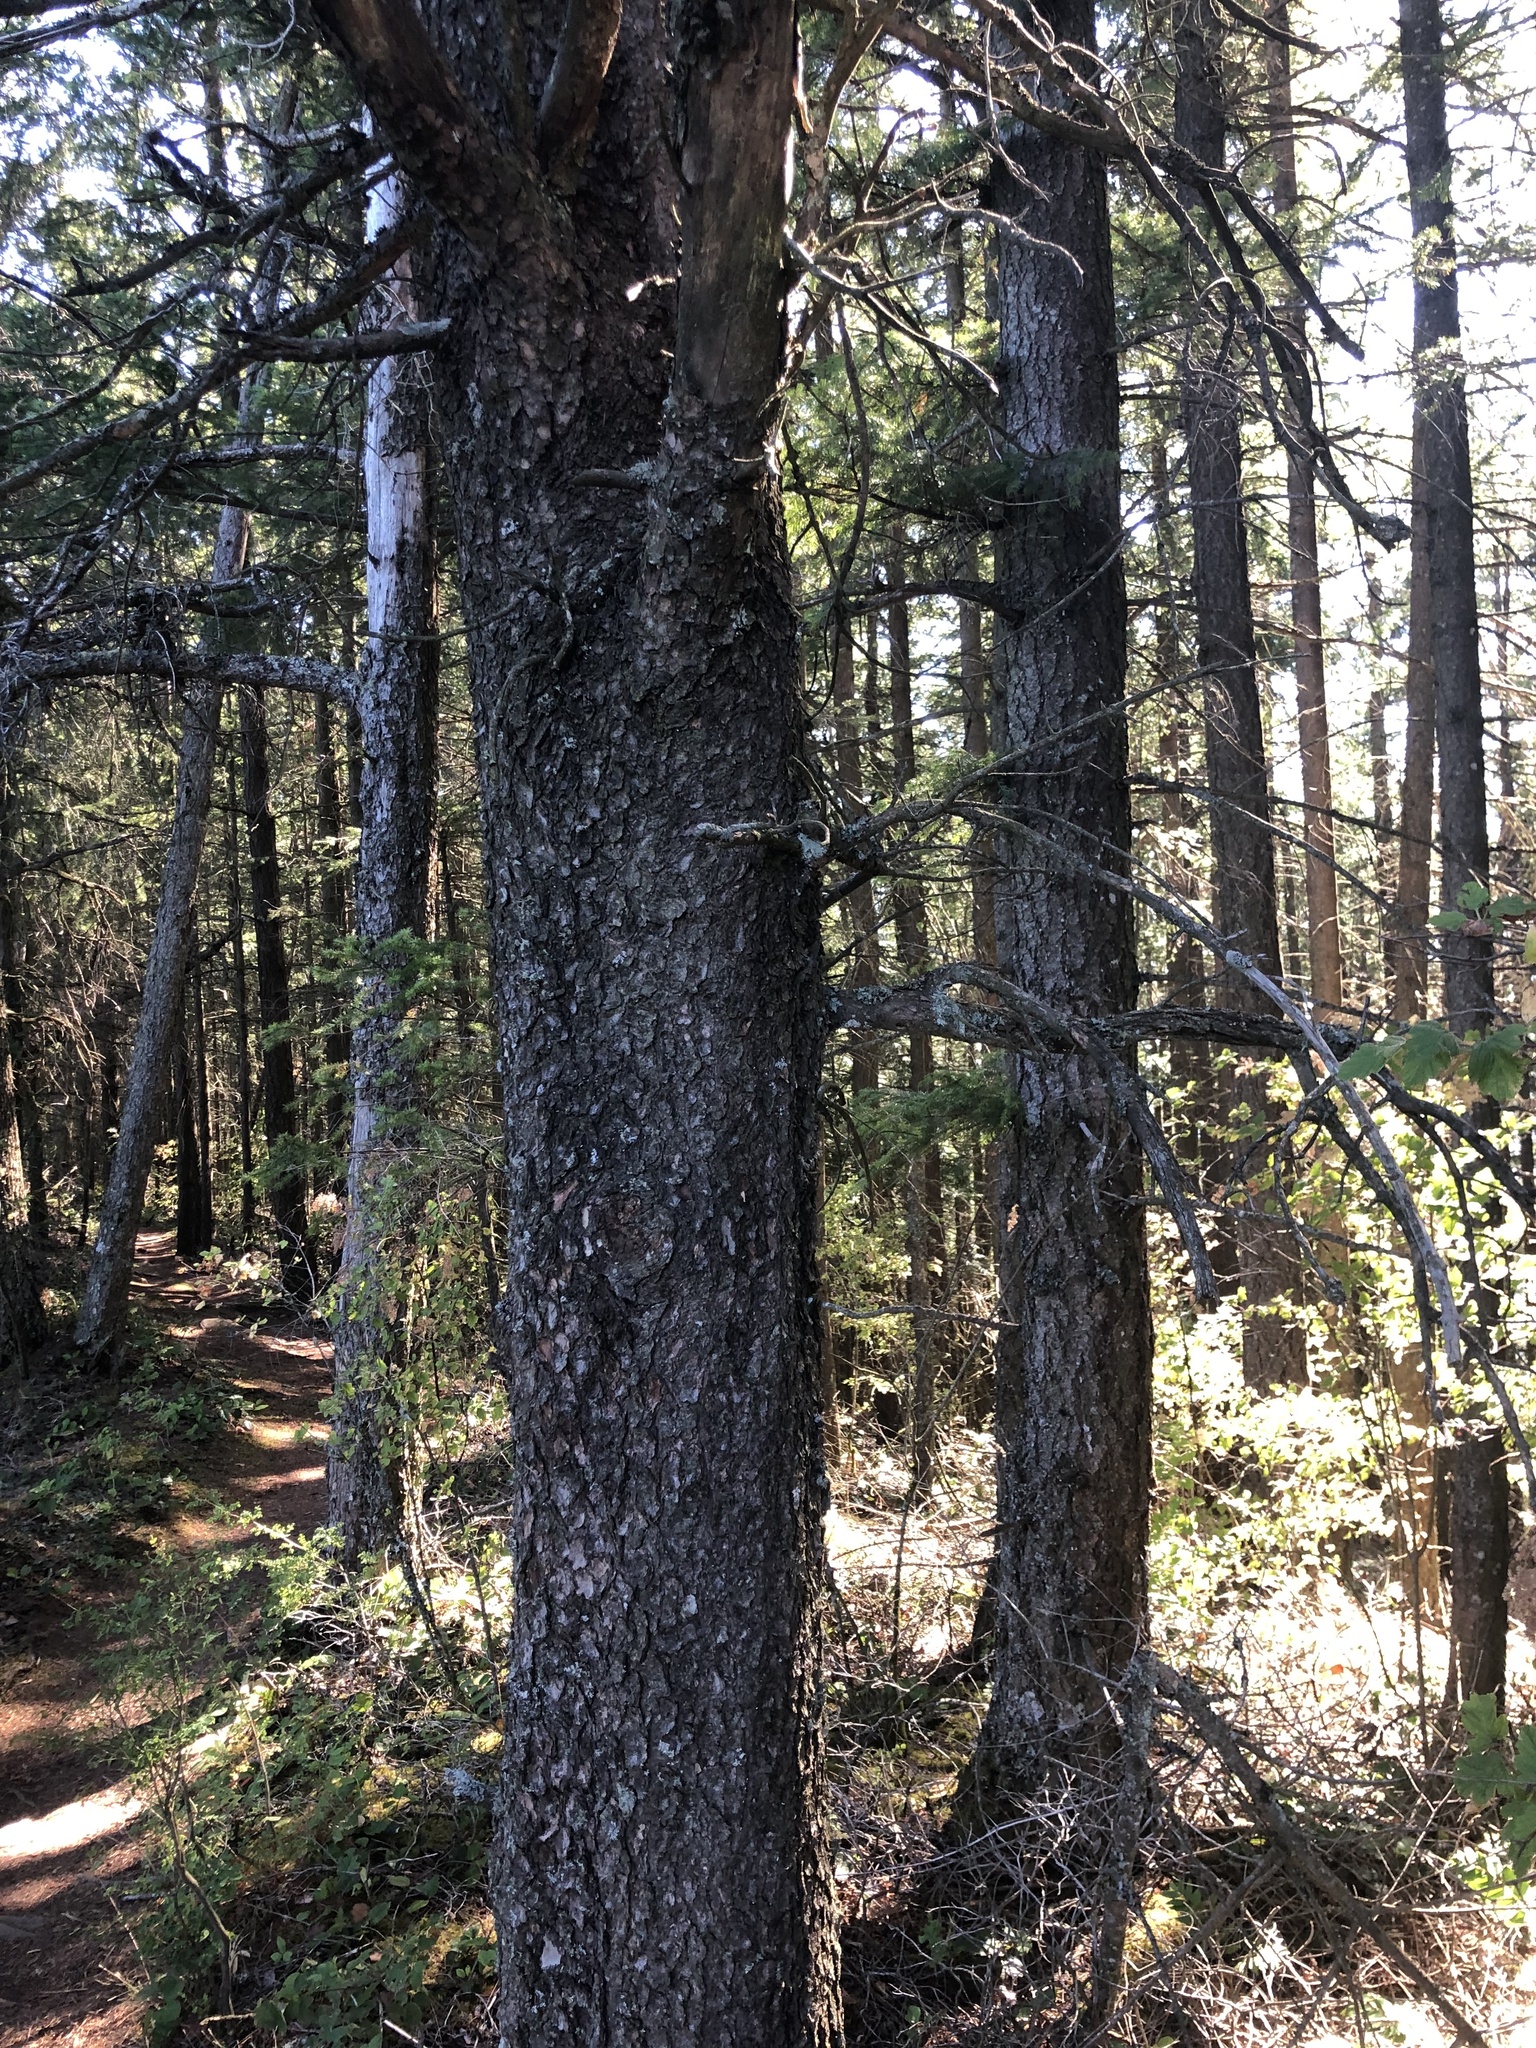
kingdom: Plantae
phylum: Tracheophyta
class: Pinopsida
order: Pinales
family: Pinaceae
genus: Pinus
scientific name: Pinus contorta
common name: Lodgepole pine
